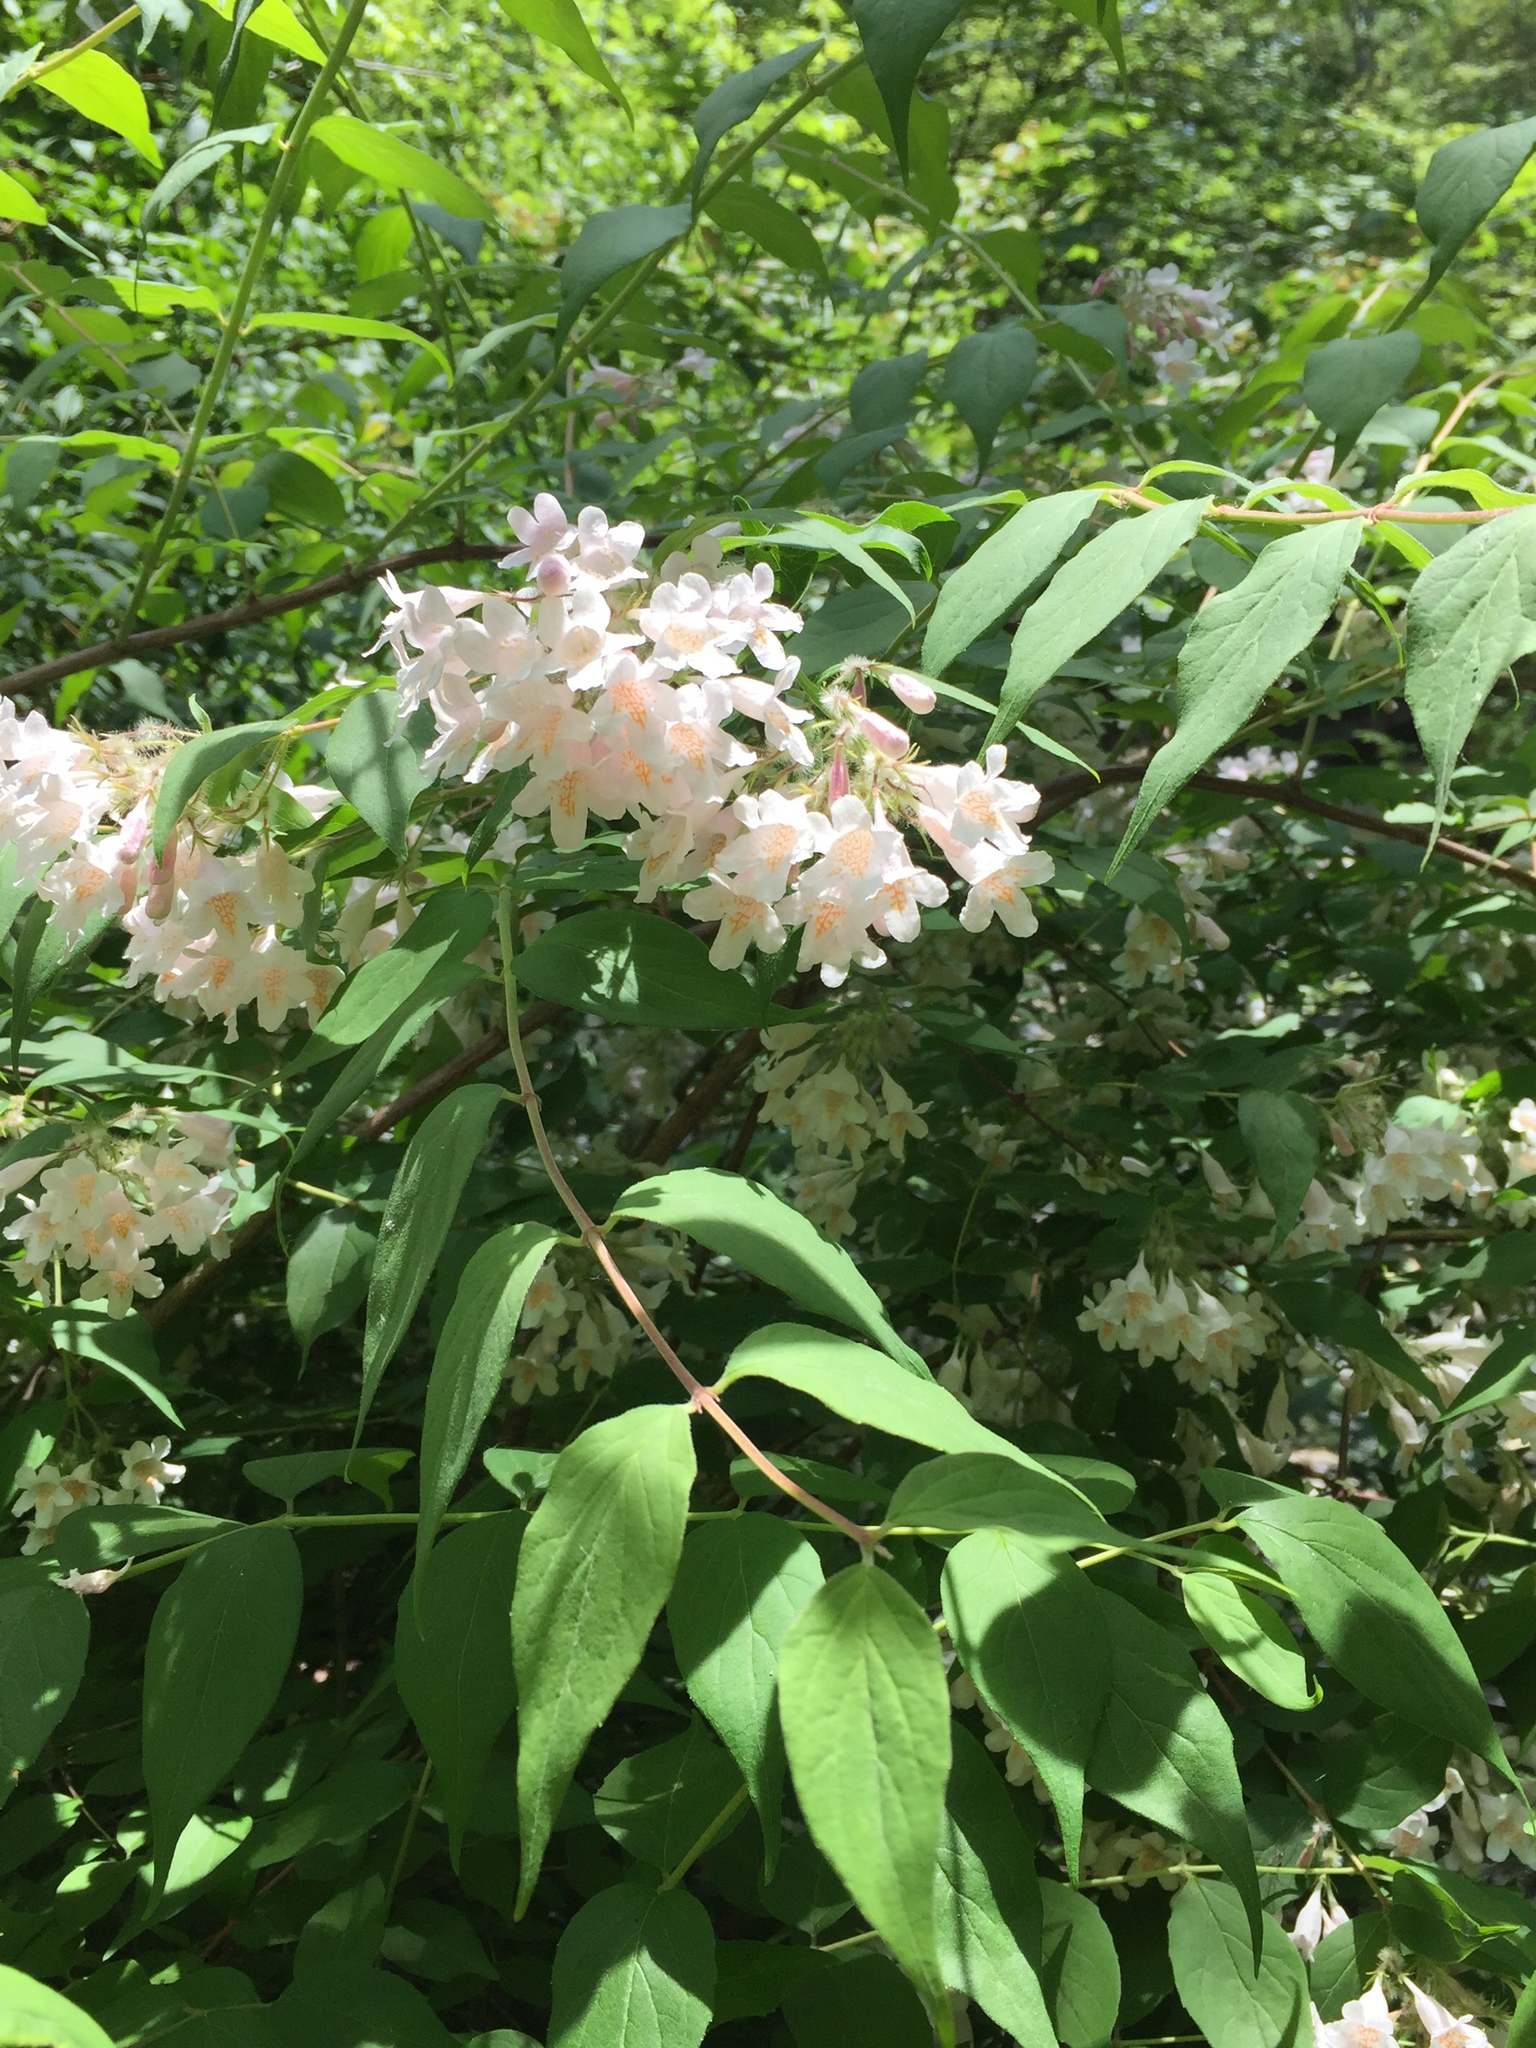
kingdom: Plantae
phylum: Tracheophyta
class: Magnoliopsida
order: Dipsacales
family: Caprifoliaceae
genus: Kolkwitzia
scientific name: Kolkwitzia amabilis
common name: Beautybush
